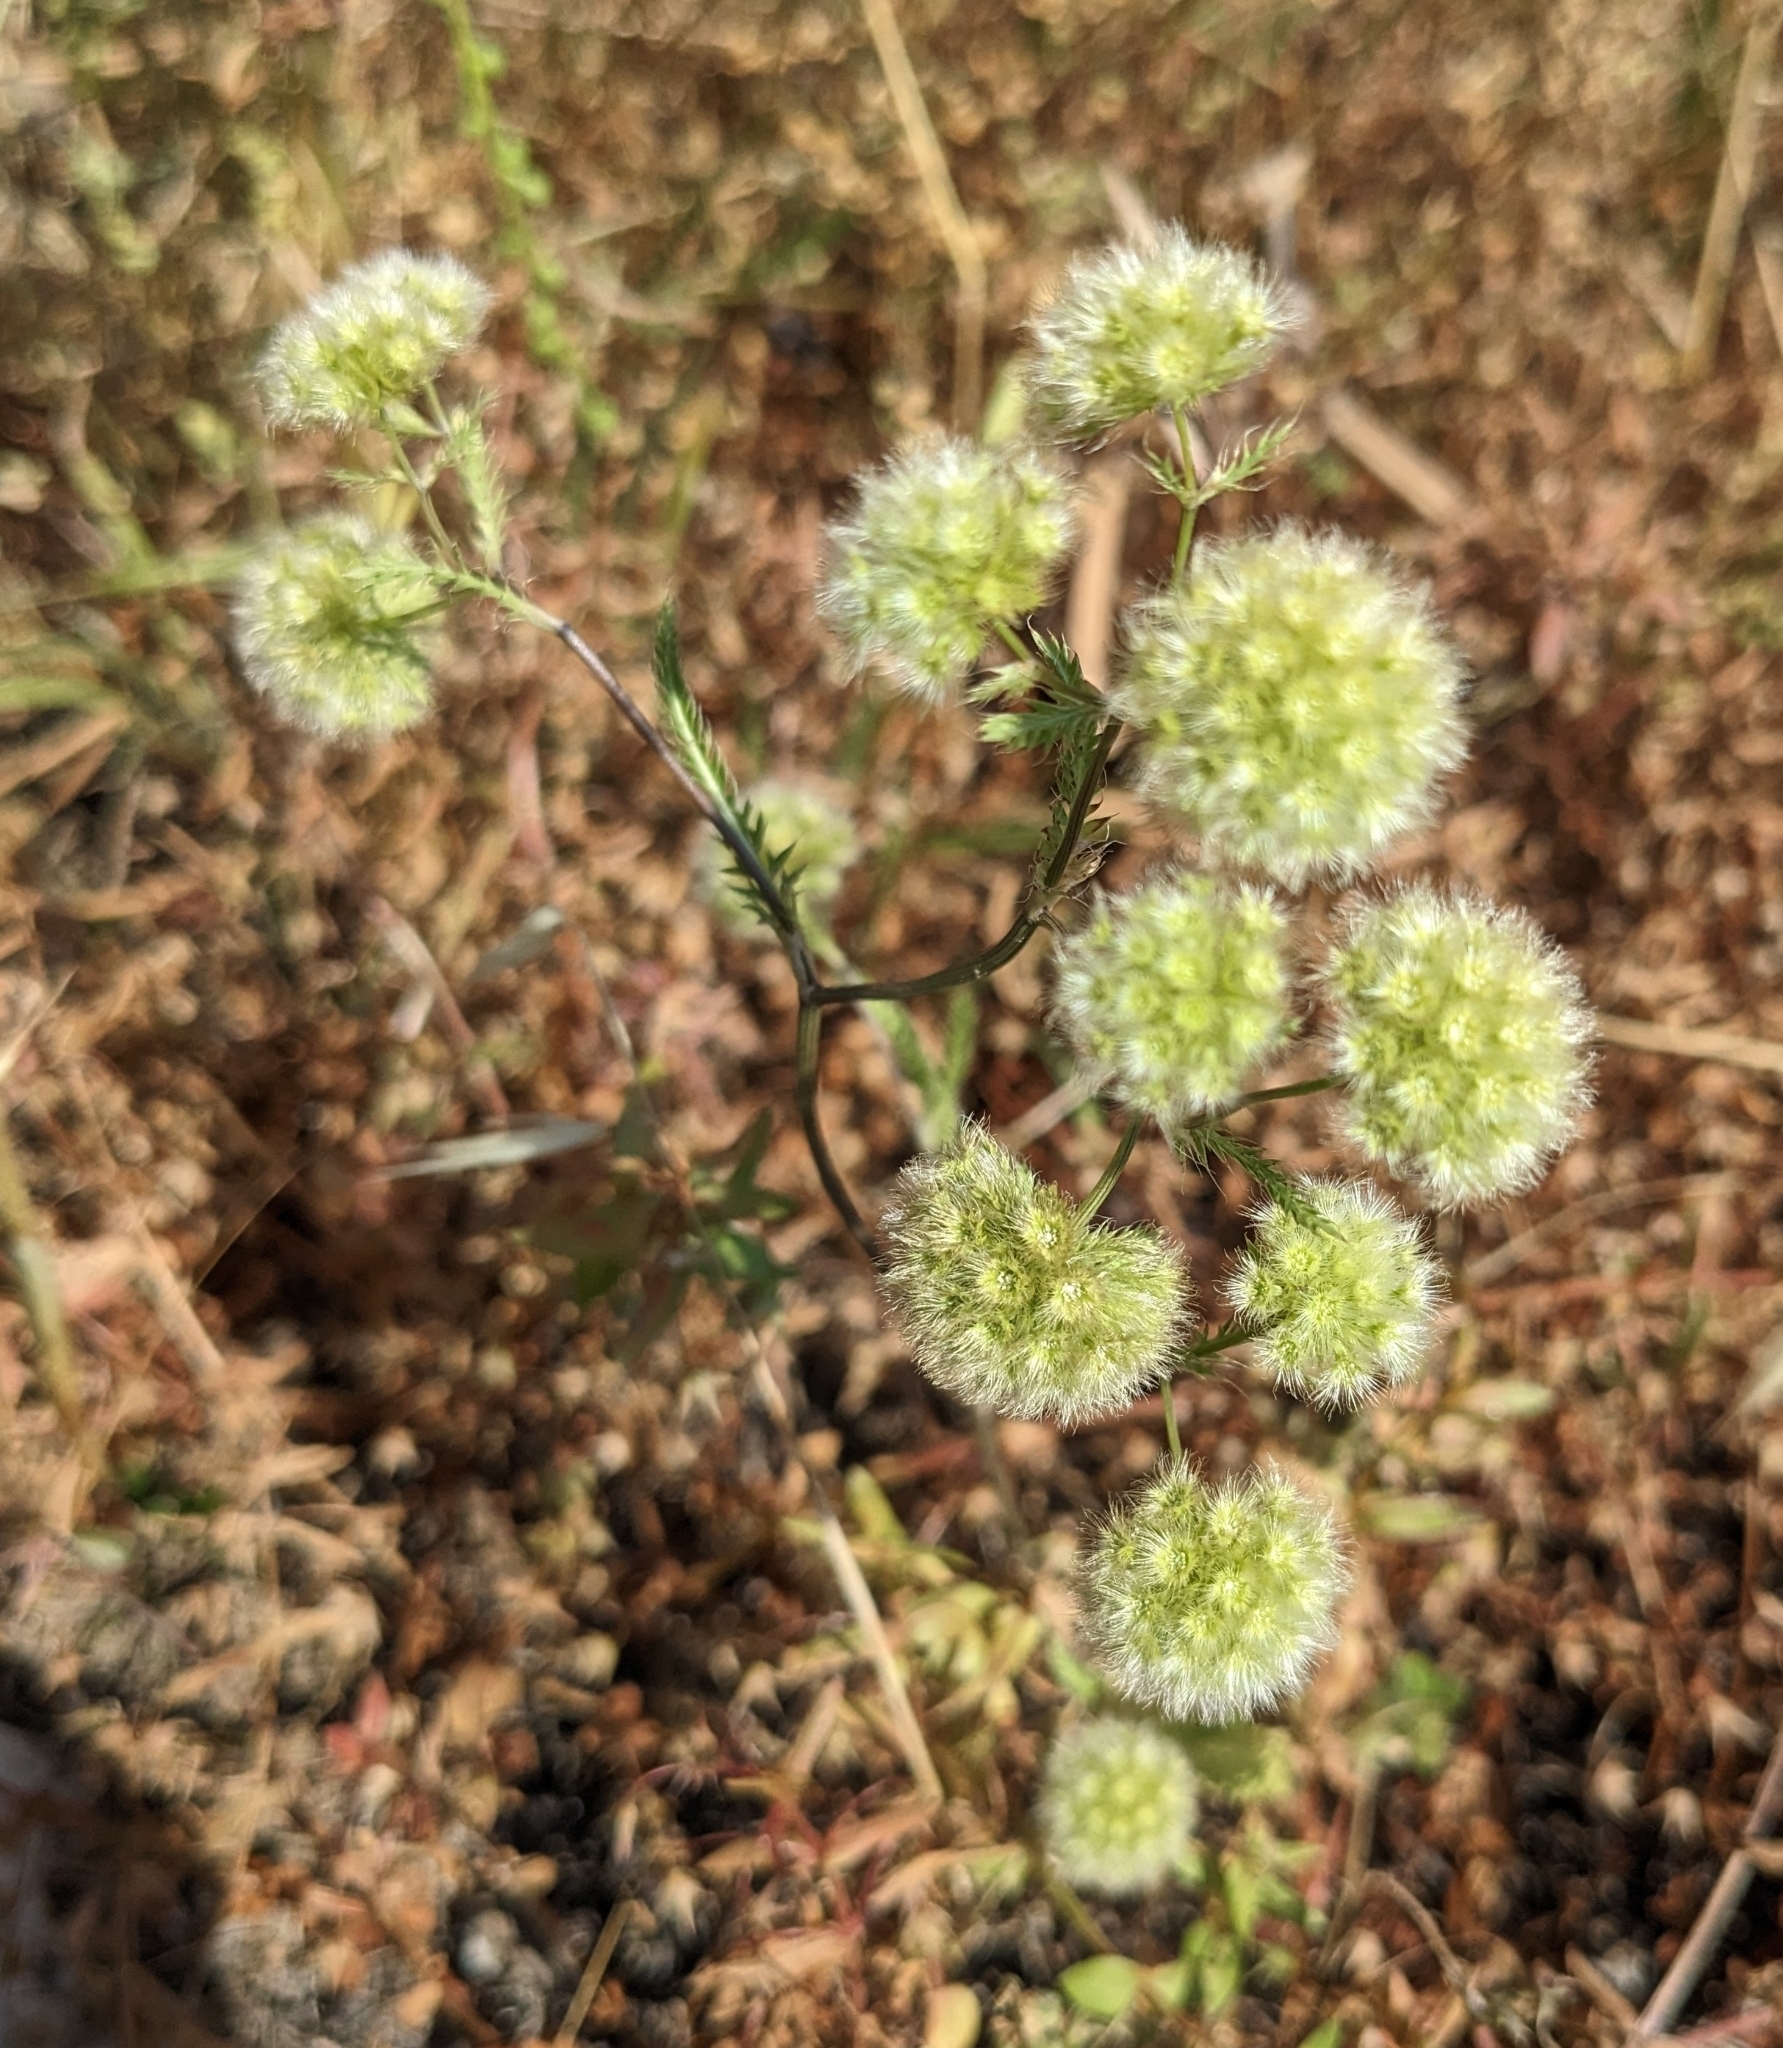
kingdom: Plantae
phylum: Tracheophyta
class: Magnoliopsida
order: Apiales
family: Apiaceae
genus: Lagoecia
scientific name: Lagoecia cuminoides
